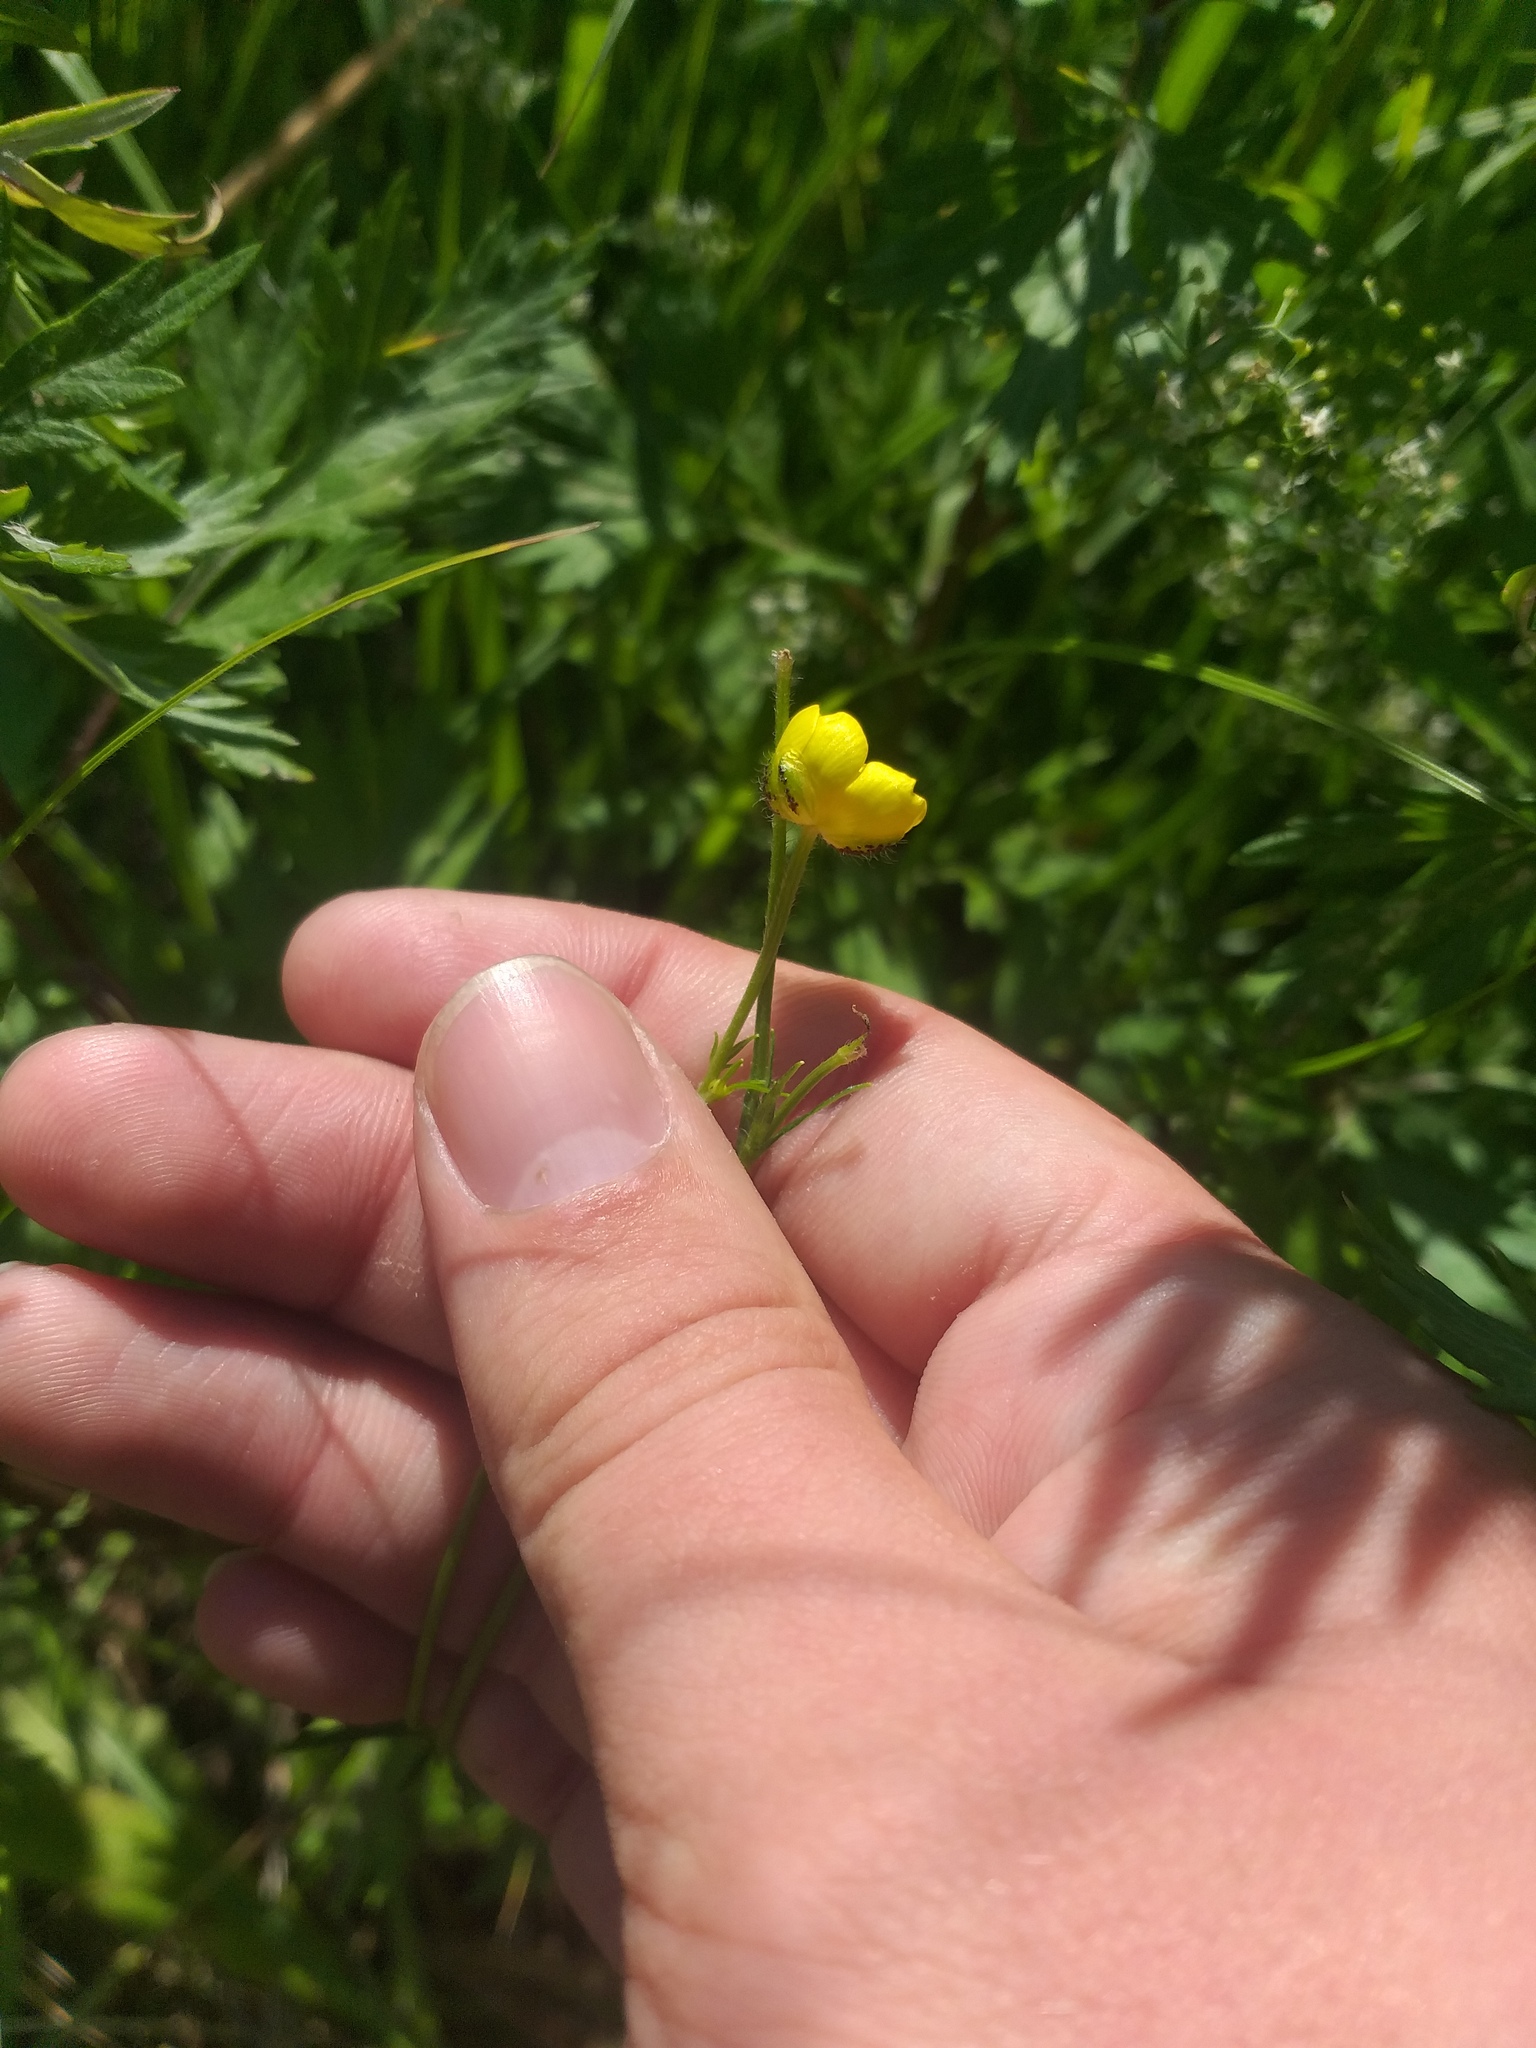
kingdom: Plantae
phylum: Tracheophyta
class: Magnoliopsida
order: Ranunculales
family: Ranunculaceae
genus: Ranunculus
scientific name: Ranunculus polyanthemos
